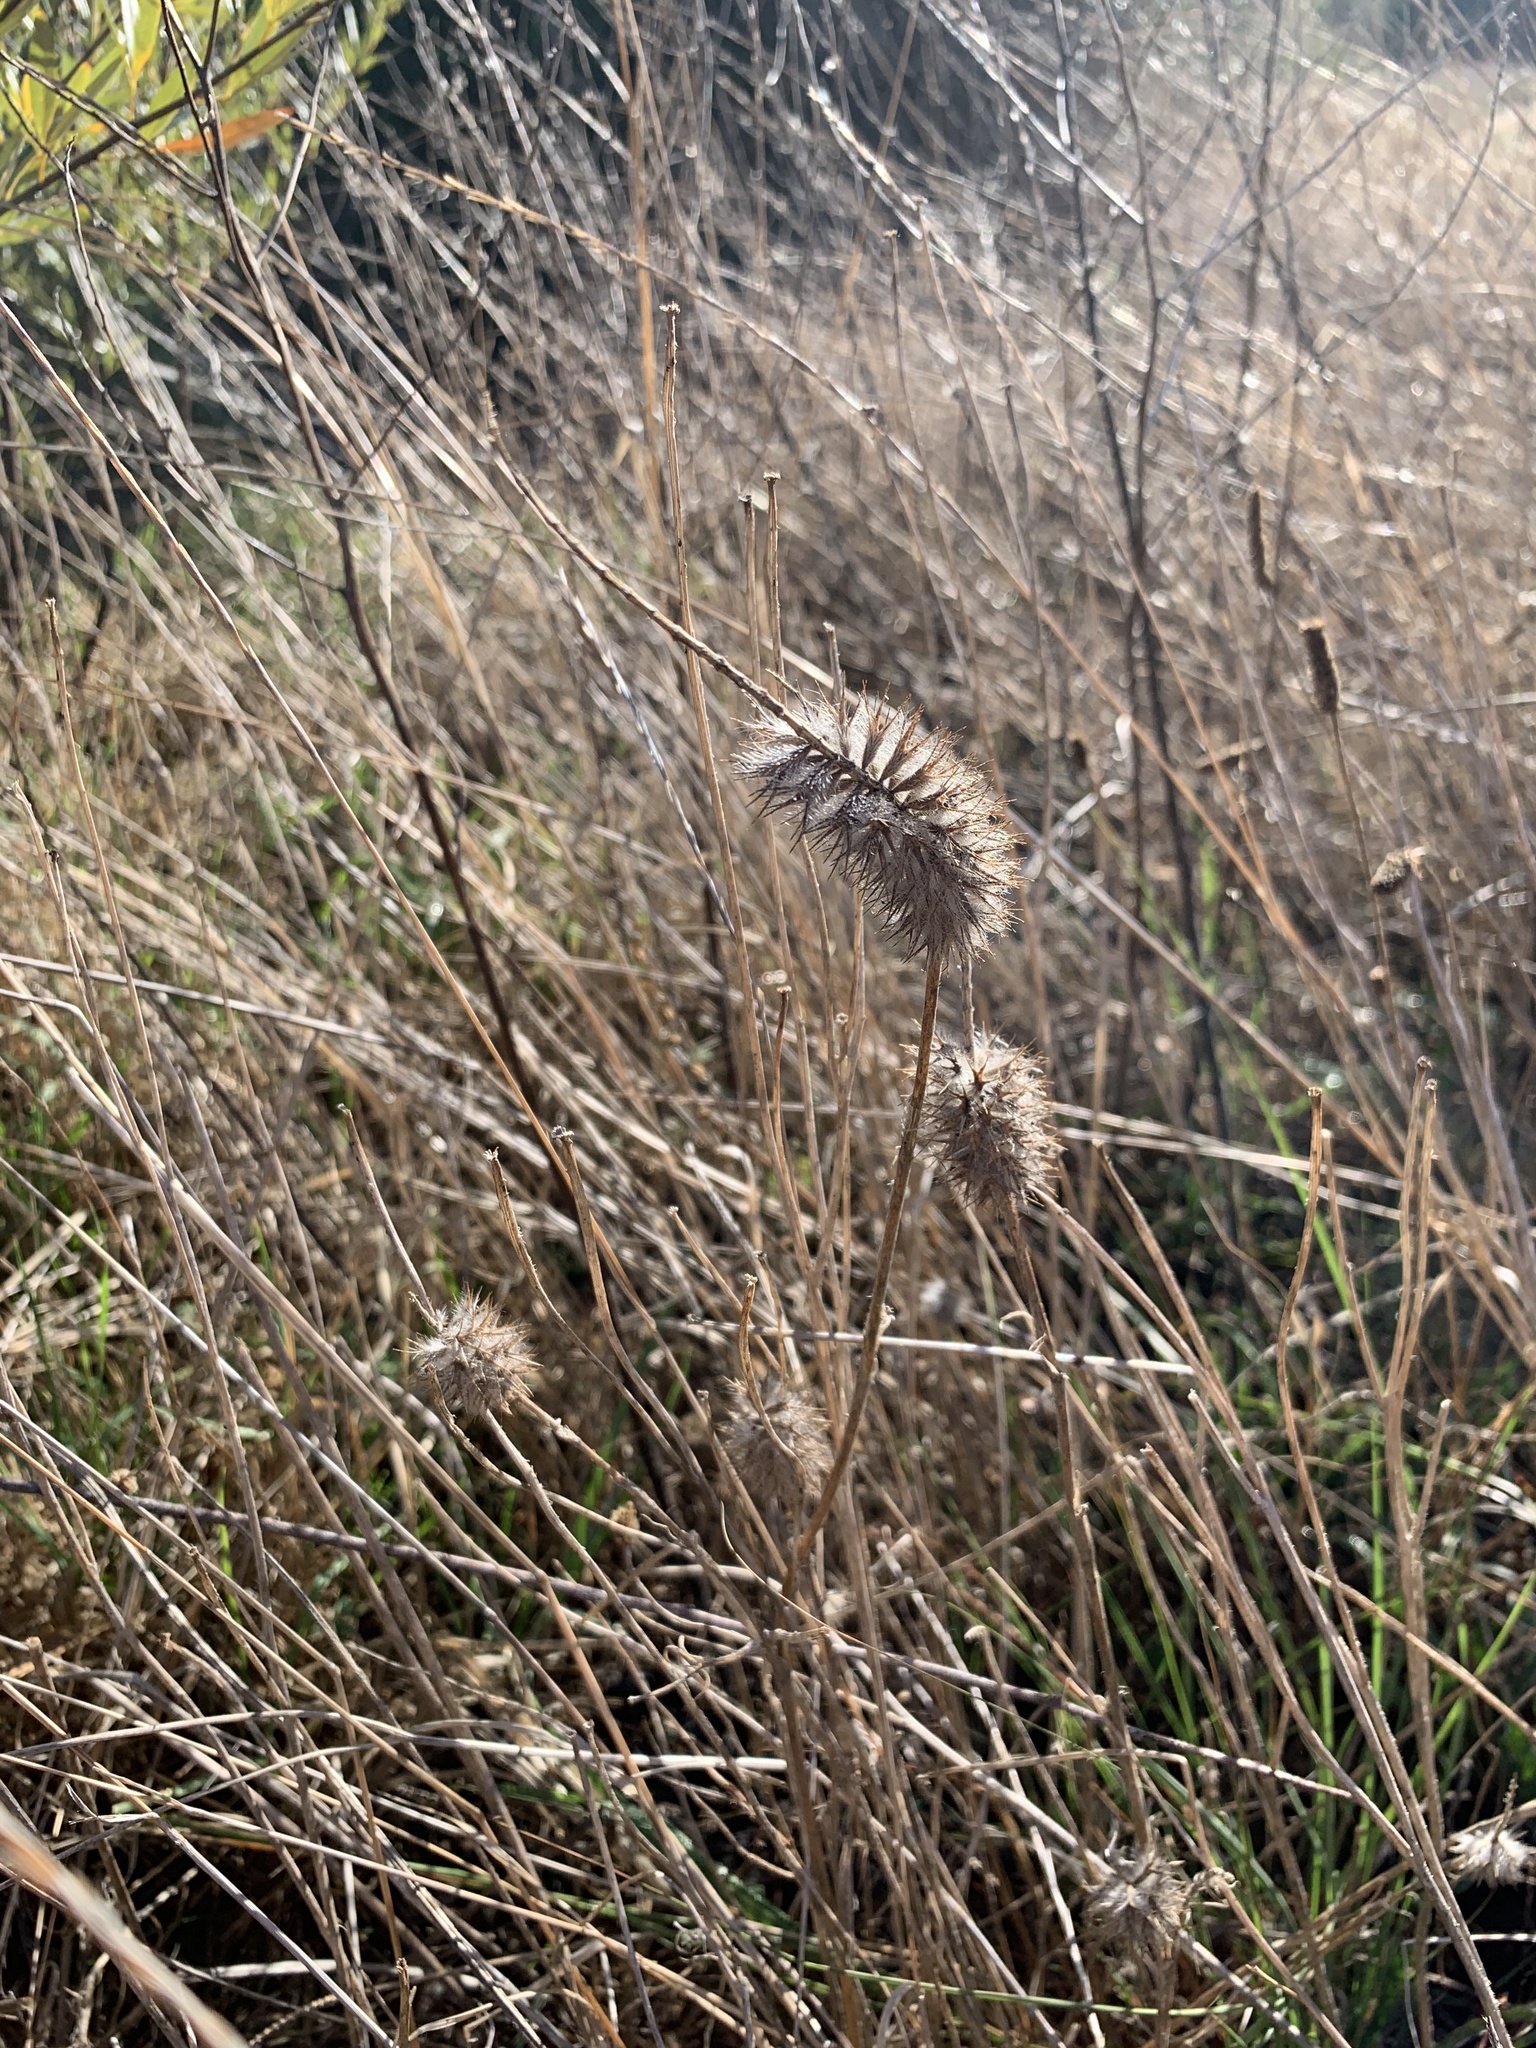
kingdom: Plantae
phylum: Tracheophyta
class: Magnoliopsida
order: Fabales
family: Fabaceae
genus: Trifolium
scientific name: Trifolium angustifolium
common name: Narrow clover
